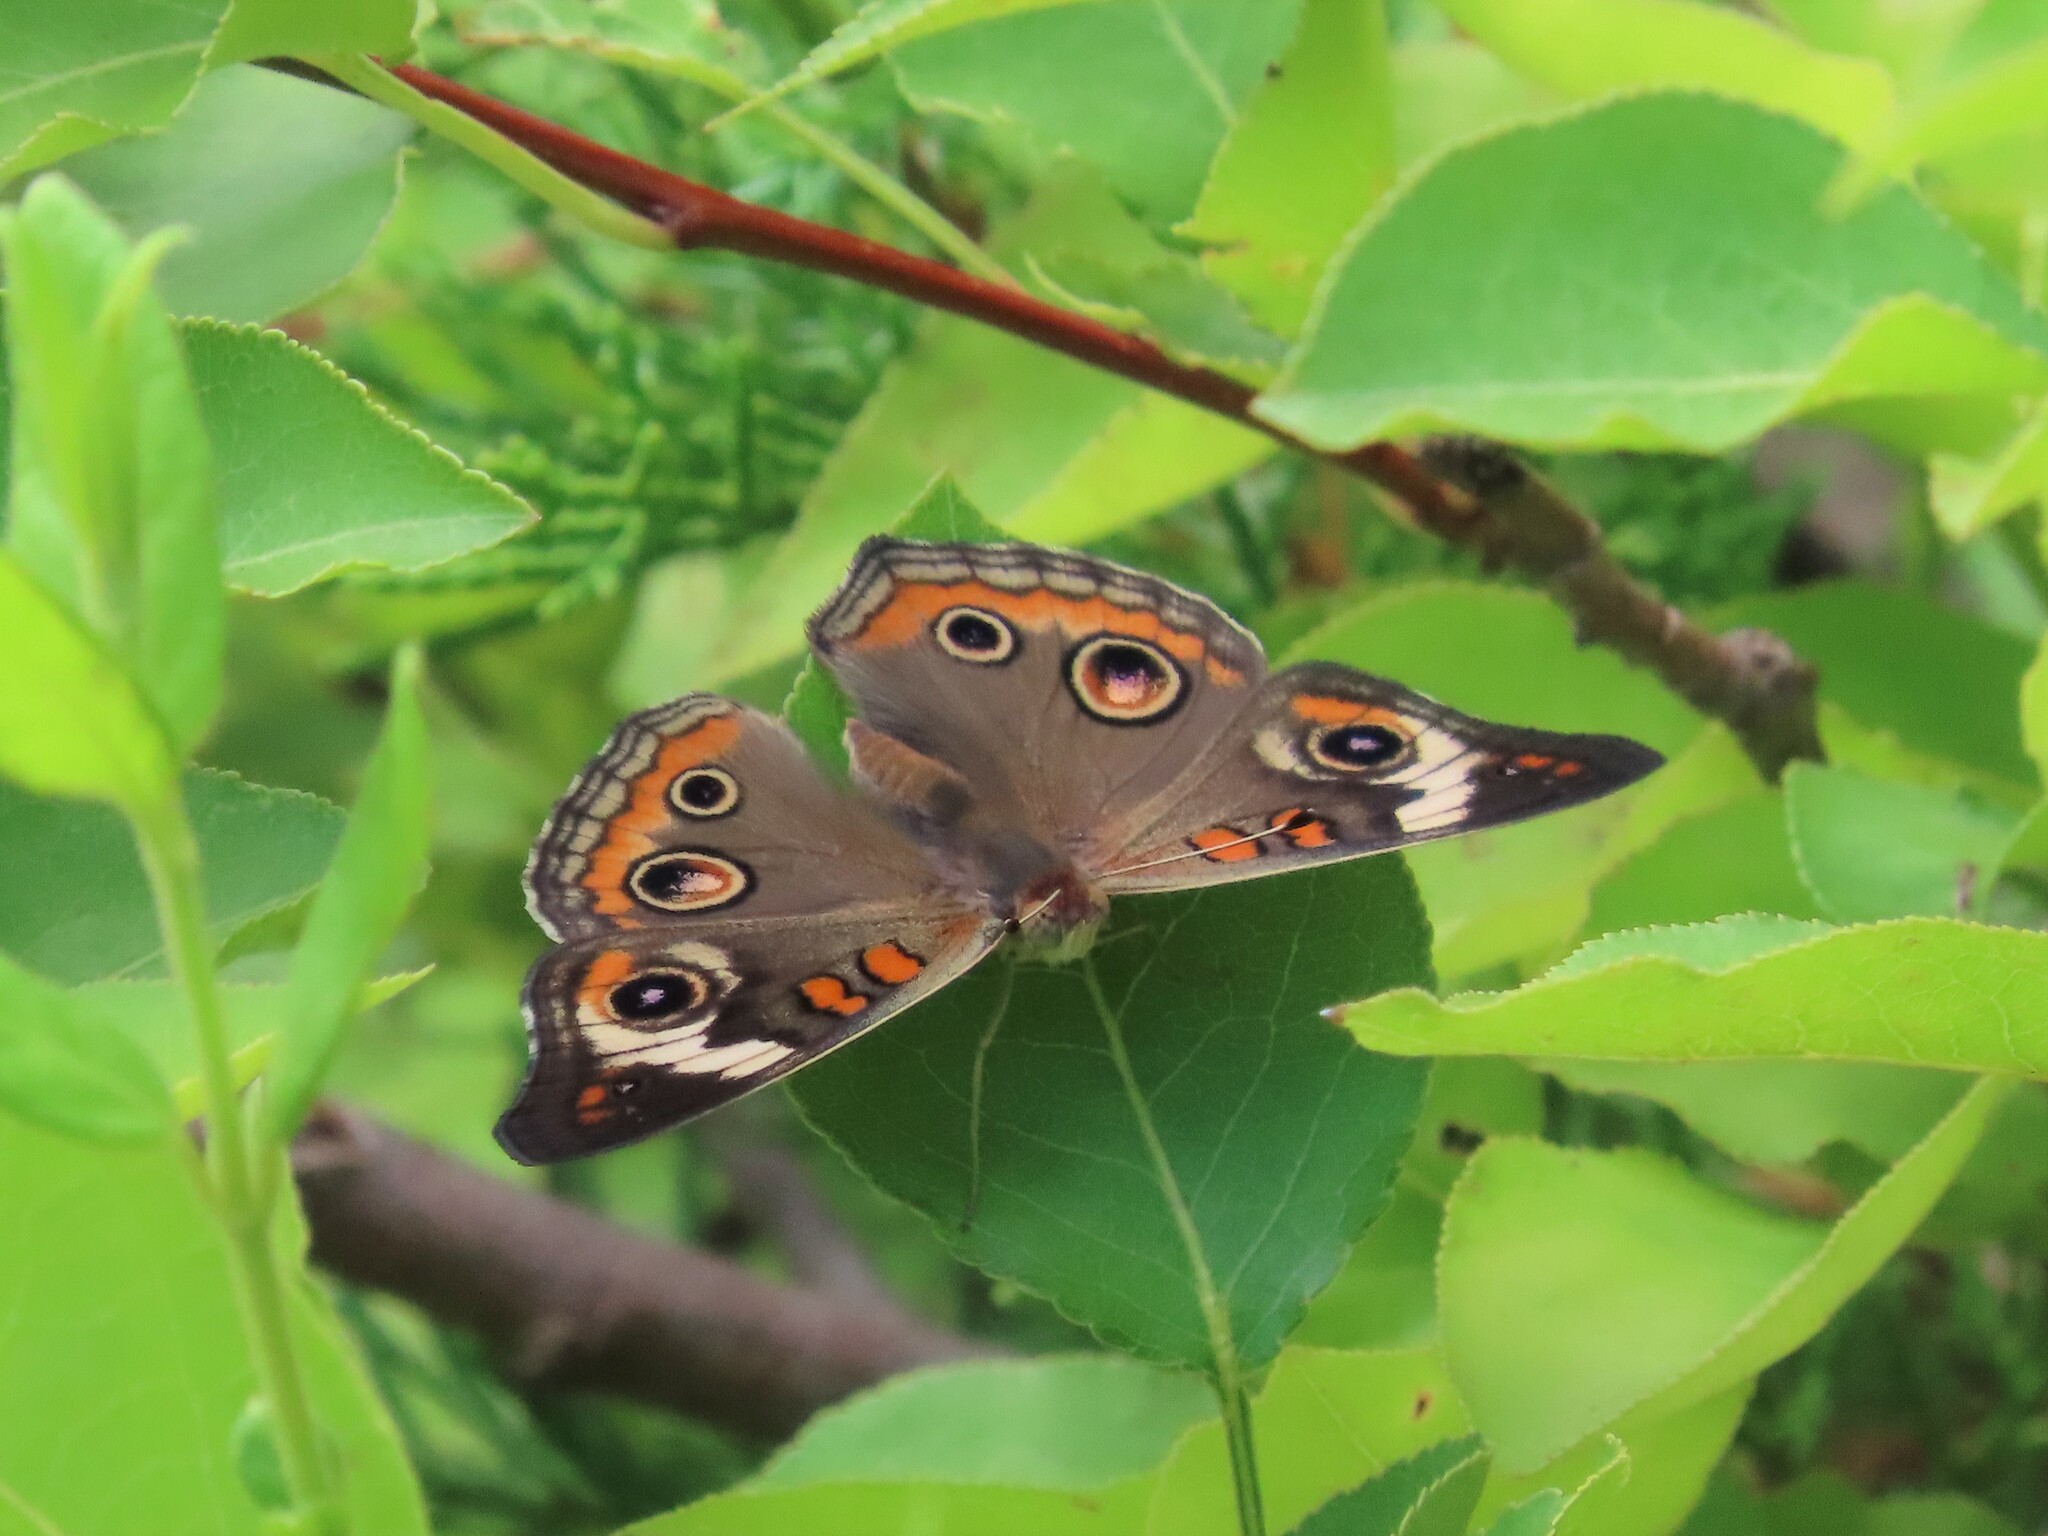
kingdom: Animalia
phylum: Arthropoda
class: Insecta
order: Lepidoptera
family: Nymphalidae
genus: Junonia
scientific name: Junonia coenia
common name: Common buckeye
